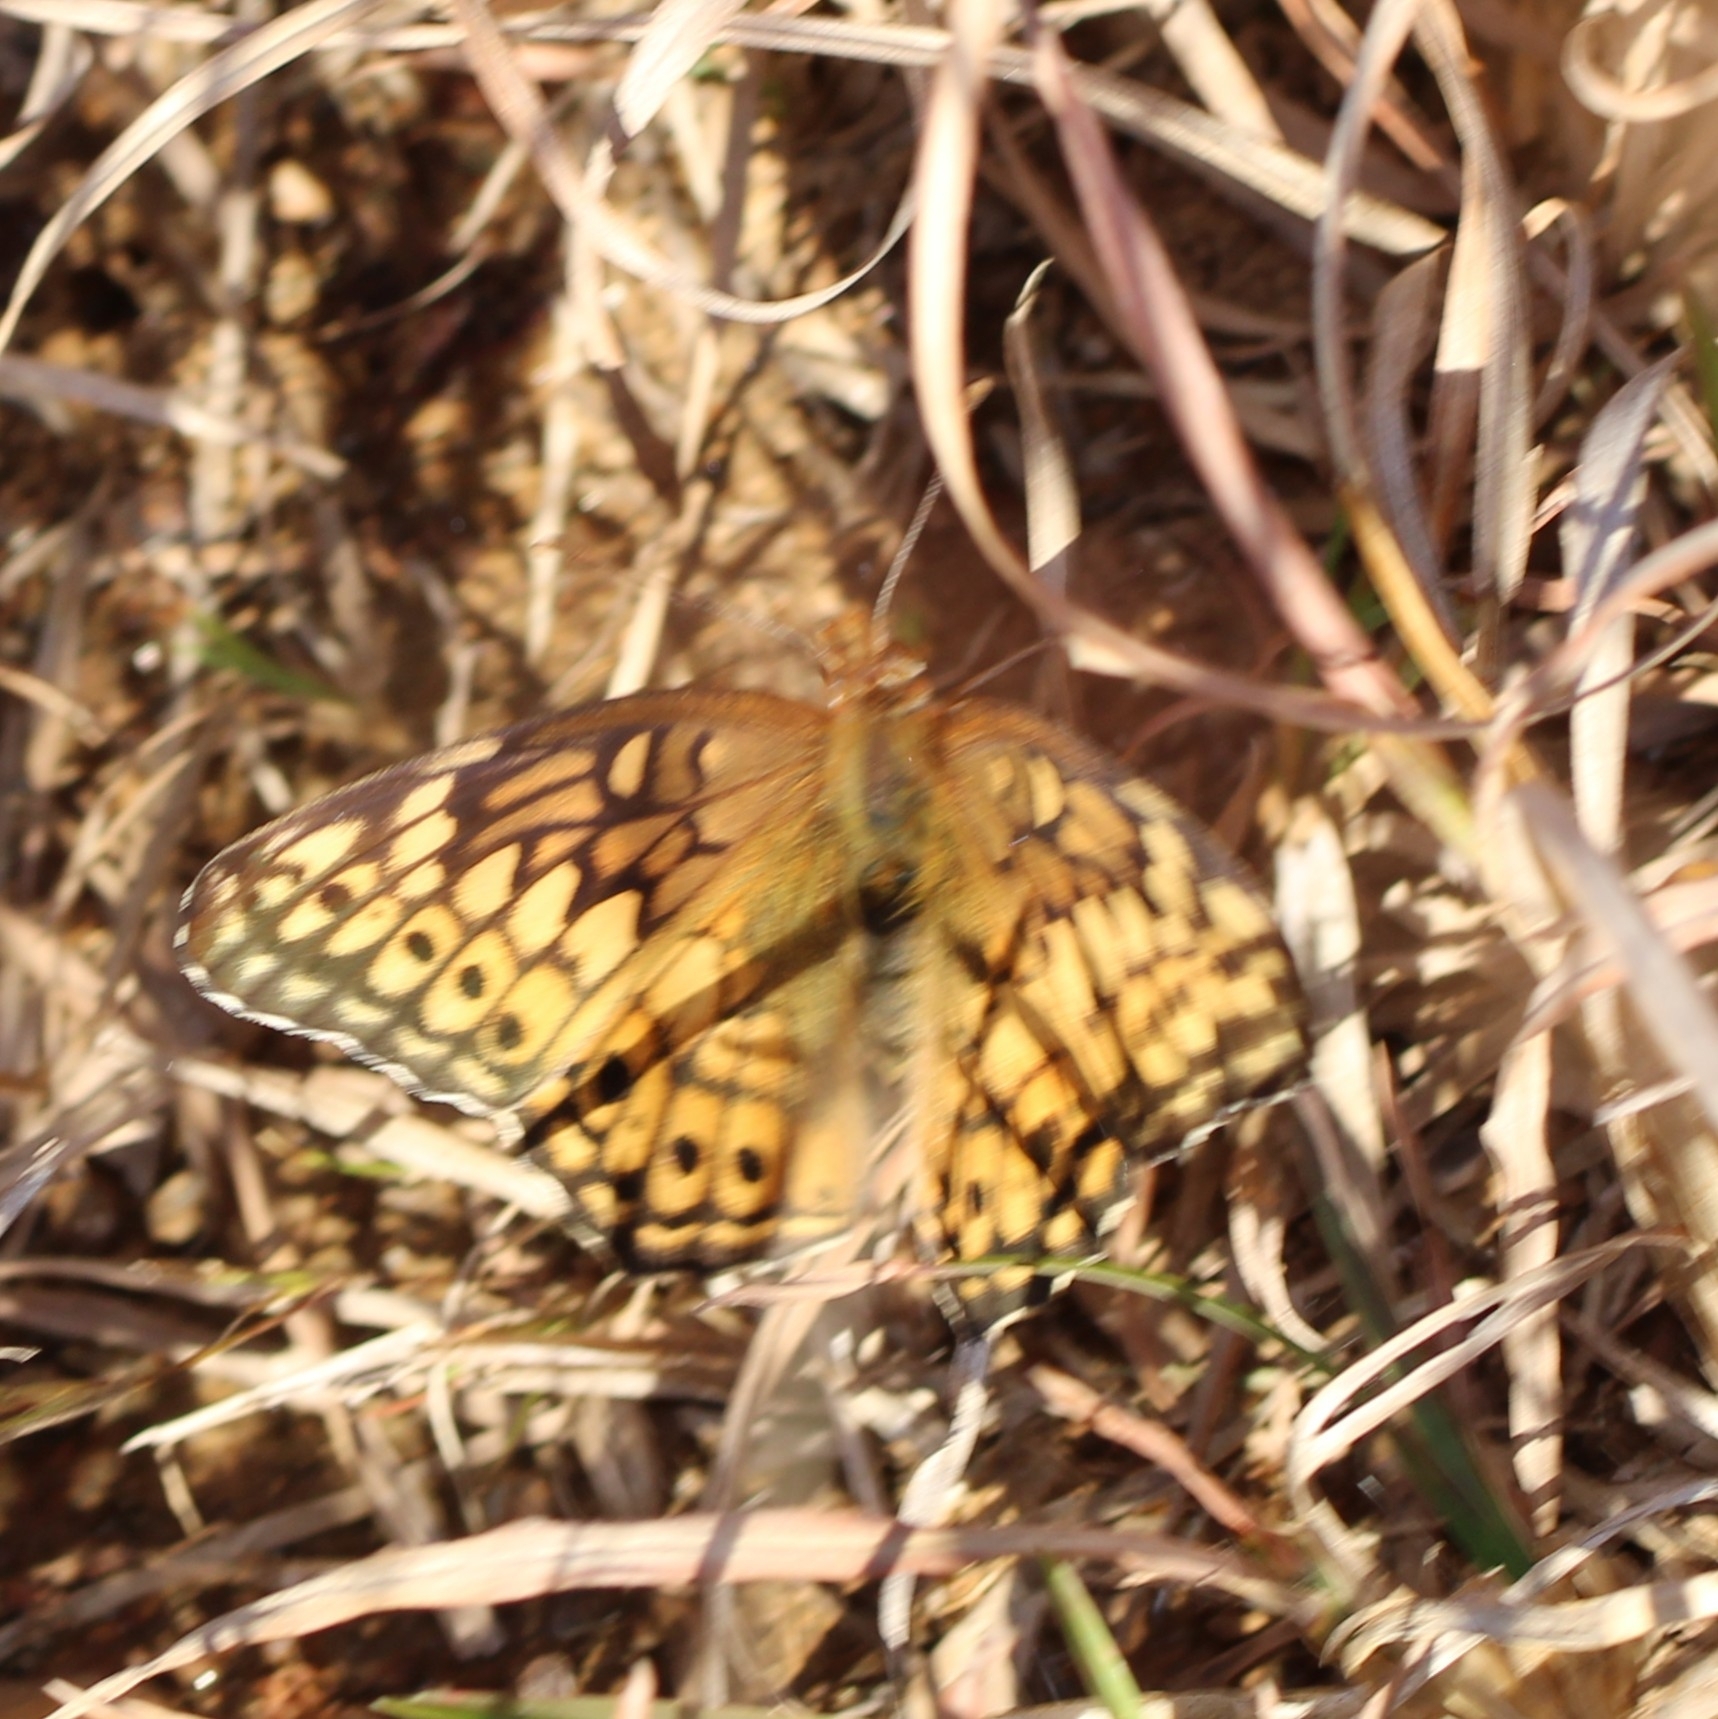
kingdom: Animalia
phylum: Arthropoda
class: Insecta
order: Lepidoptera
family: Nymphalidae
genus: Euptoieta
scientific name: Euptoieta claudia
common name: Variegated fritillary
